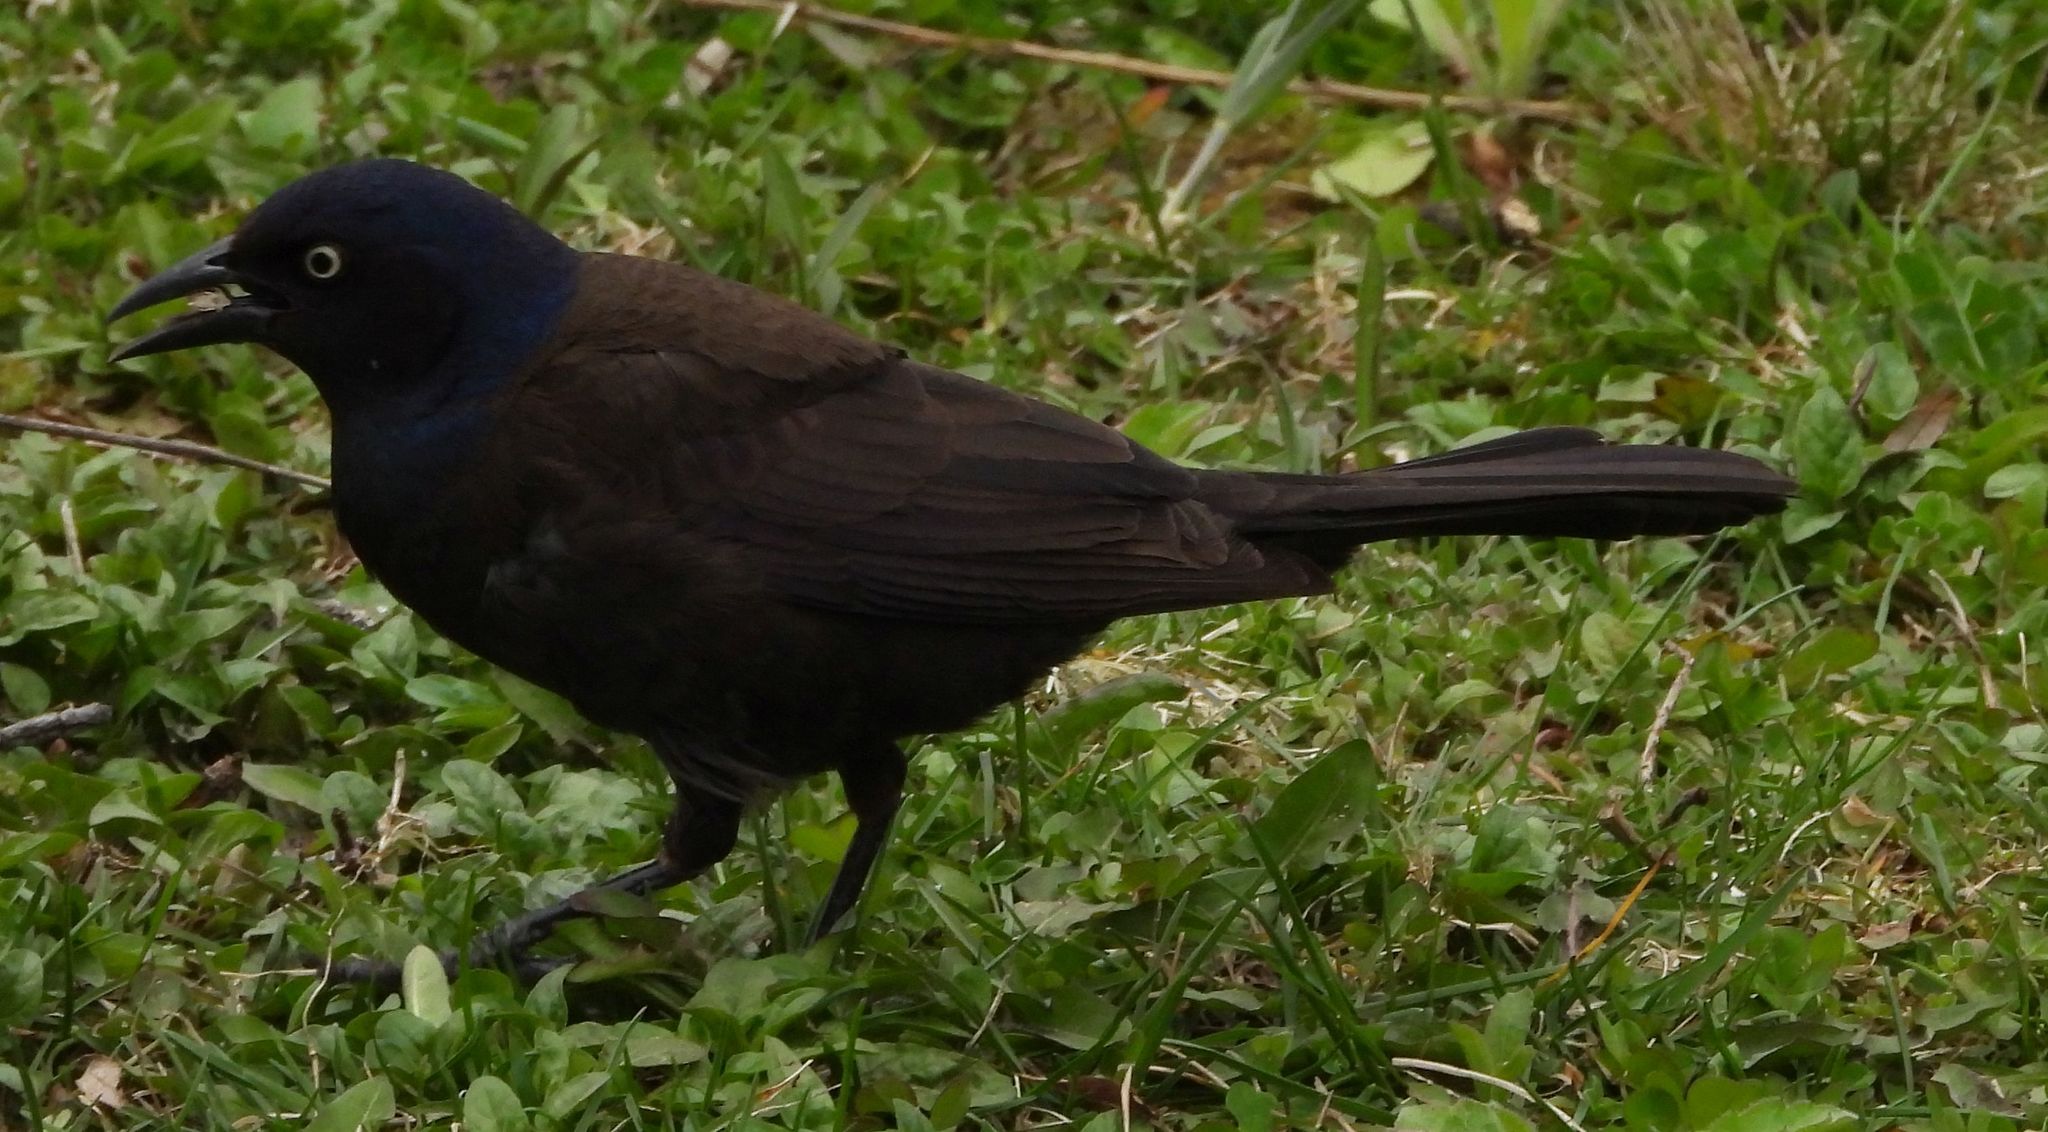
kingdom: Animalia
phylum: Chordata
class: Aves
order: Passeriformes
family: Icteridae
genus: Quiscalus
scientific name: Quiscalus quiscula
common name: Common grackle
